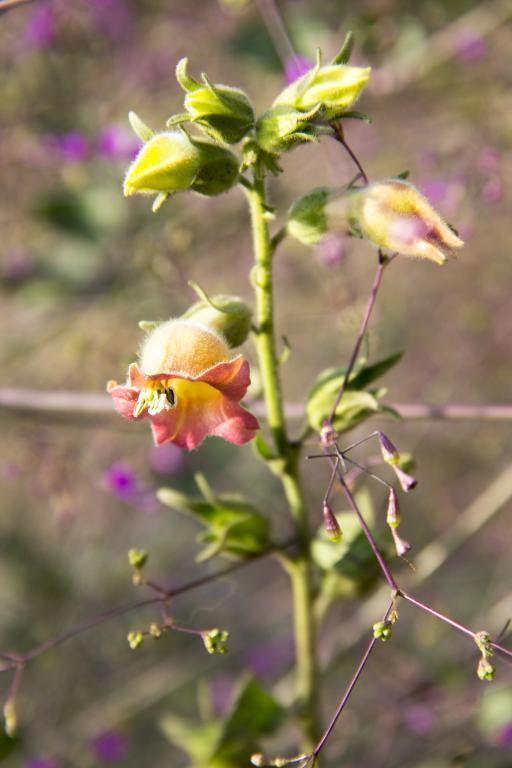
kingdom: Plantae
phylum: Tracheophyta
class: Magnoliopsida
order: Solanales
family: Solanaceae
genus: Nicotiana
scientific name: Nicotiana glutinosa
